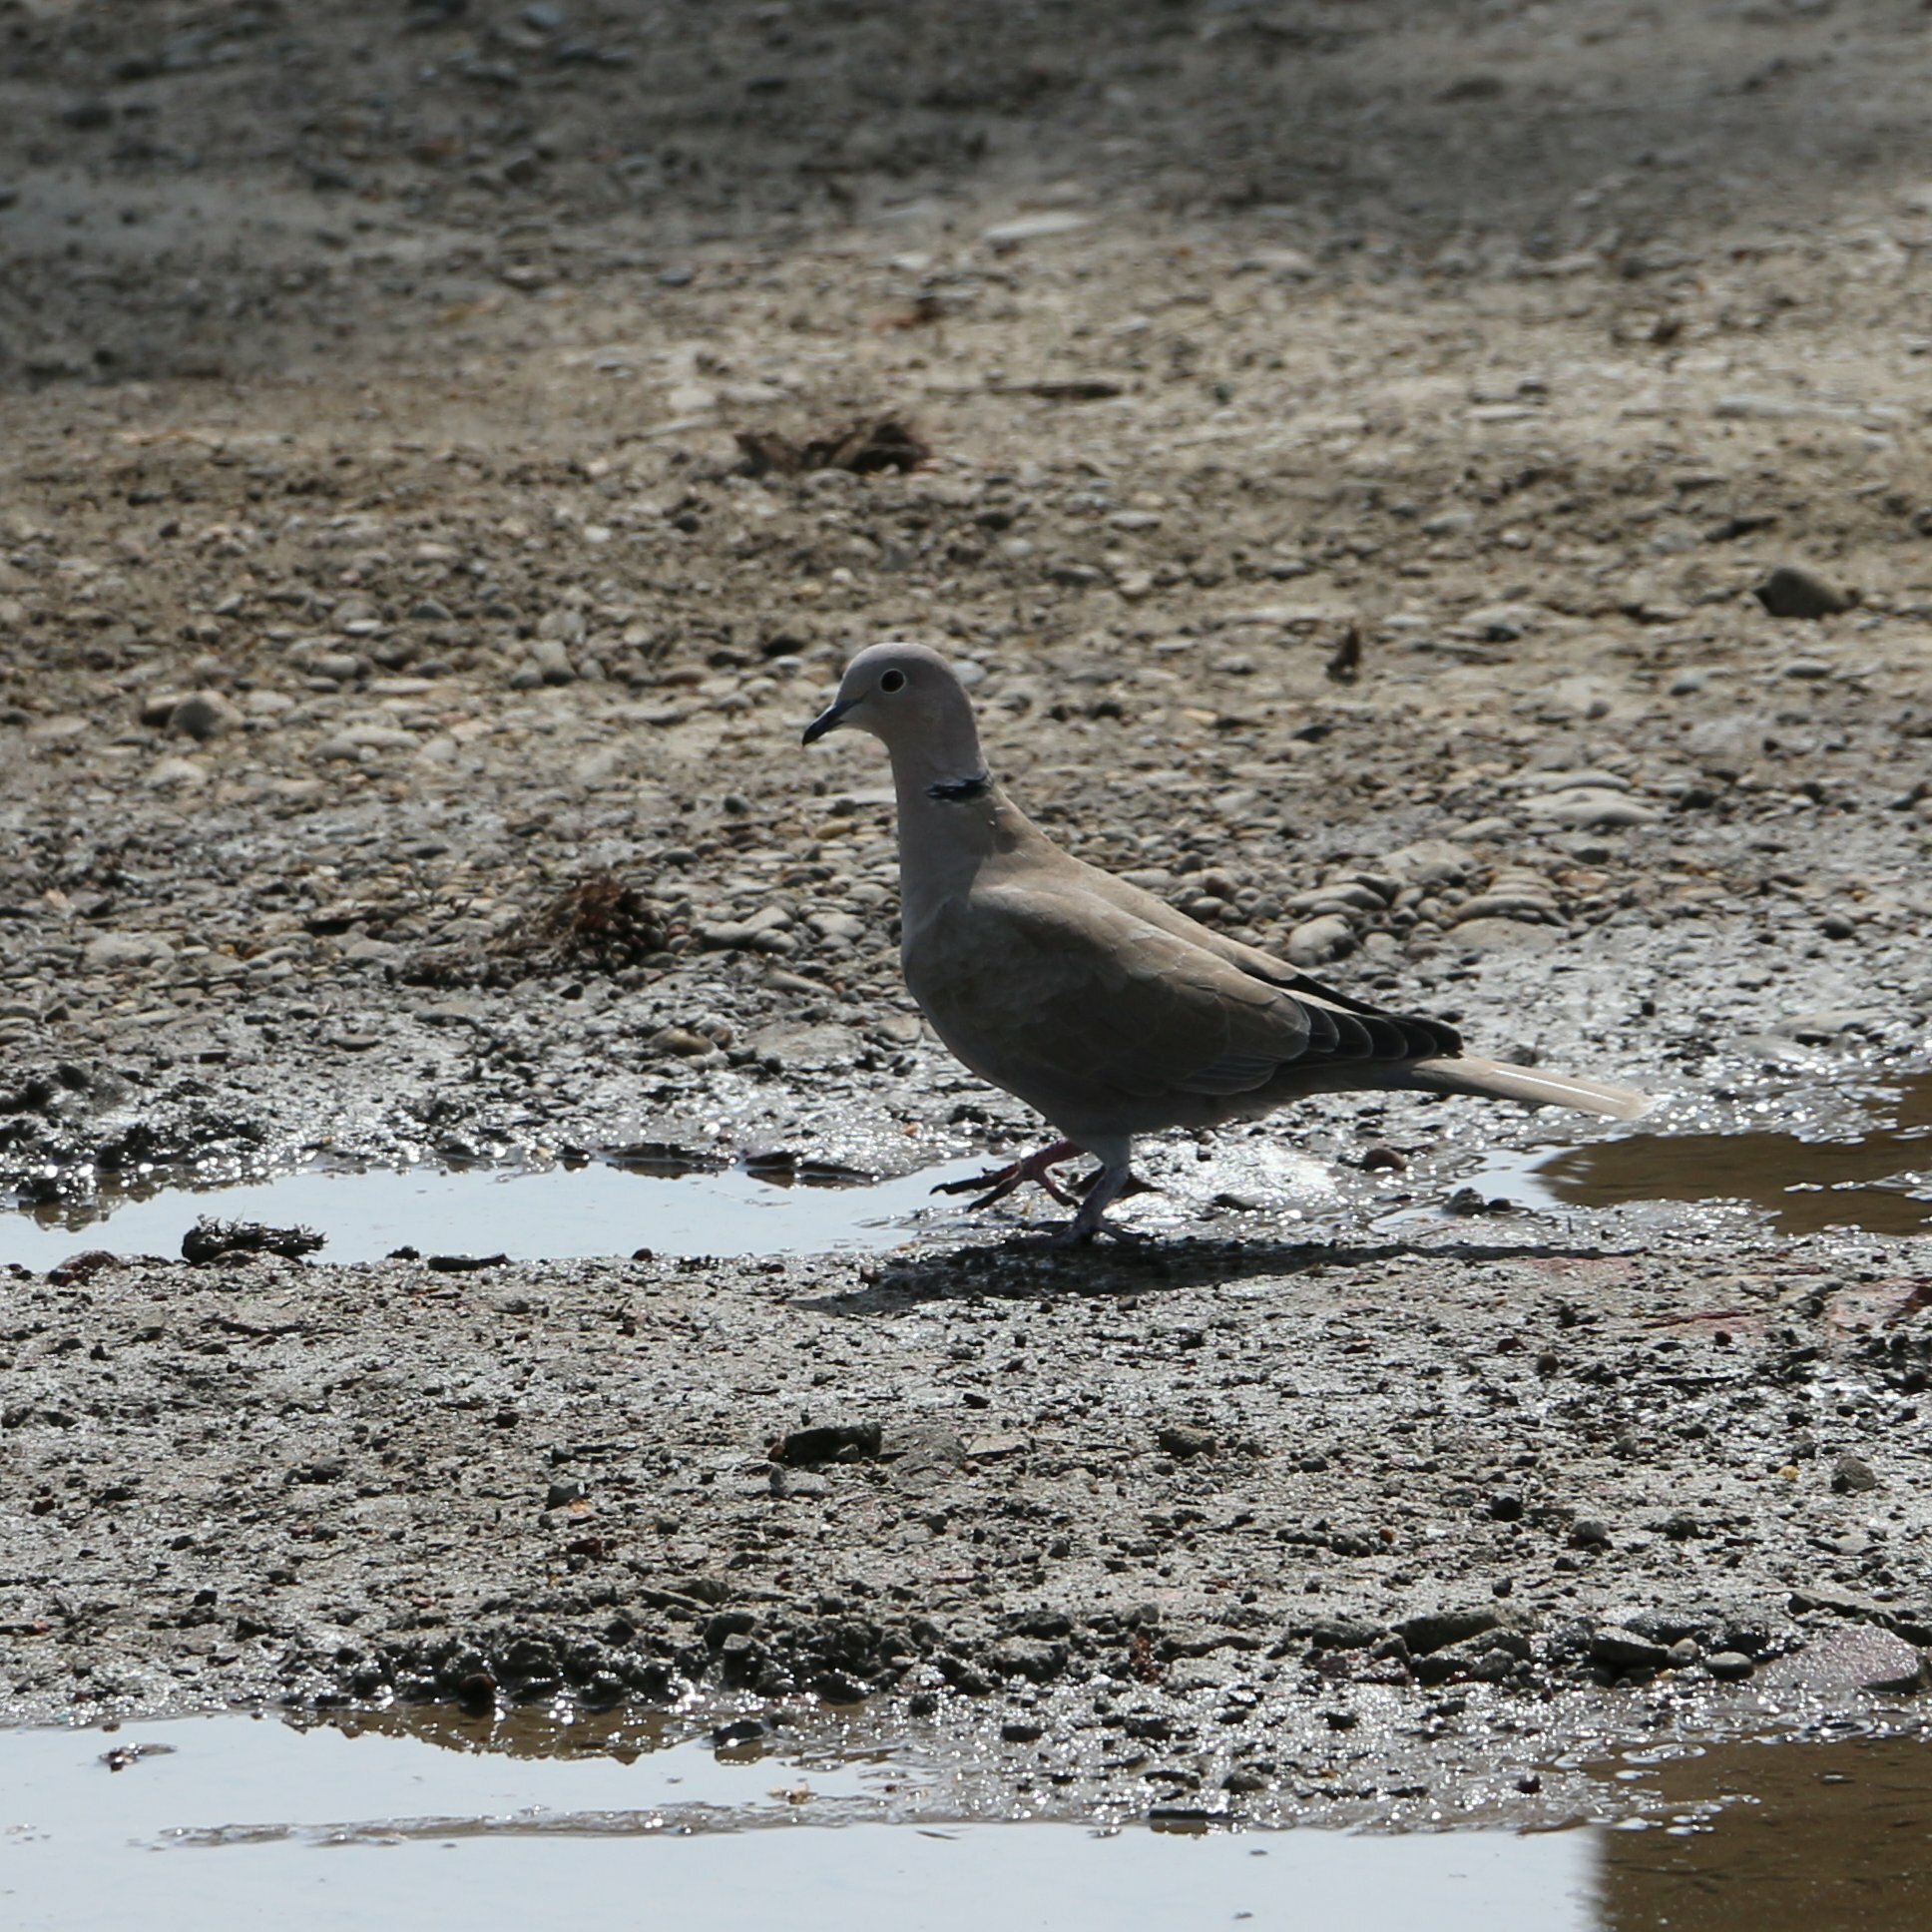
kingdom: Animalia
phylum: Chordata
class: Aves
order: Columbiformes
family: Columbidae
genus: Streptopelia
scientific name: Streptopelia decaocto
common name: Eurasian collared dove
